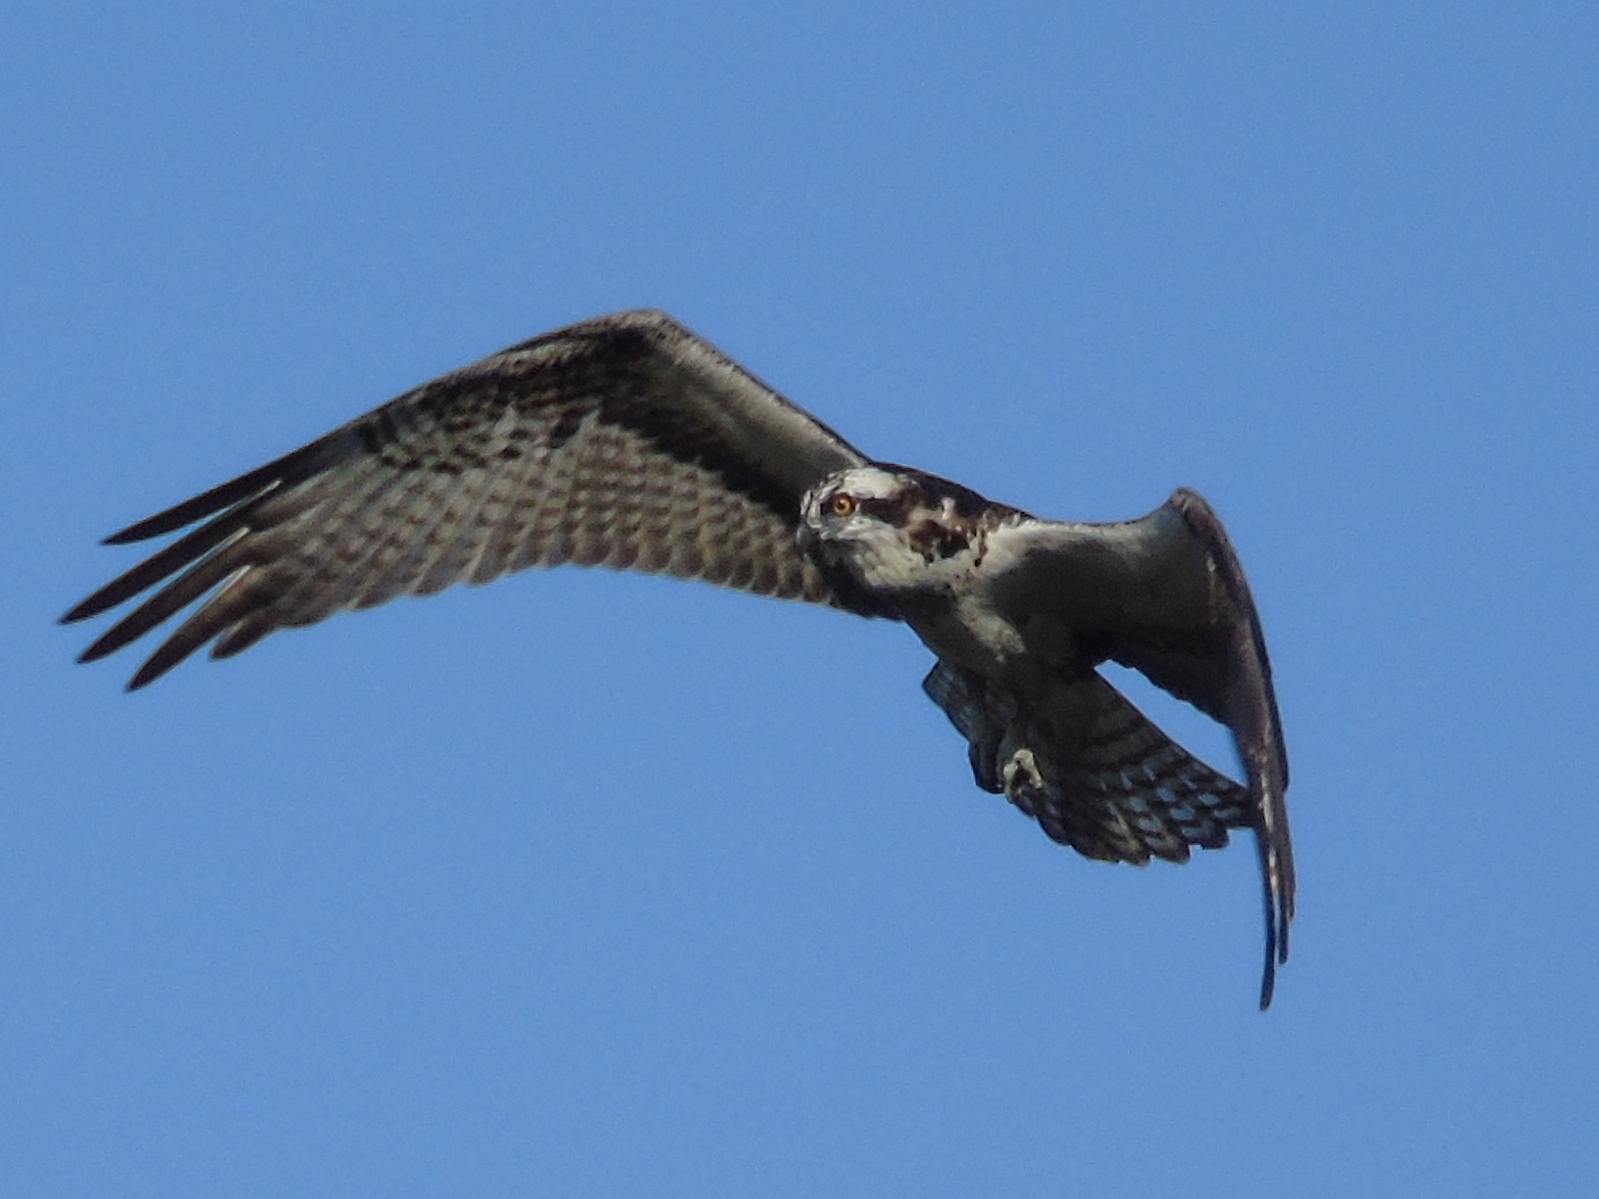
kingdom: Animalia
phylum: Chordata
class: Aves
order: Accipitriformes
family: Pandionidae
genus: Pandion
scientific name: Pandion haliaetus
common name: Osprey
